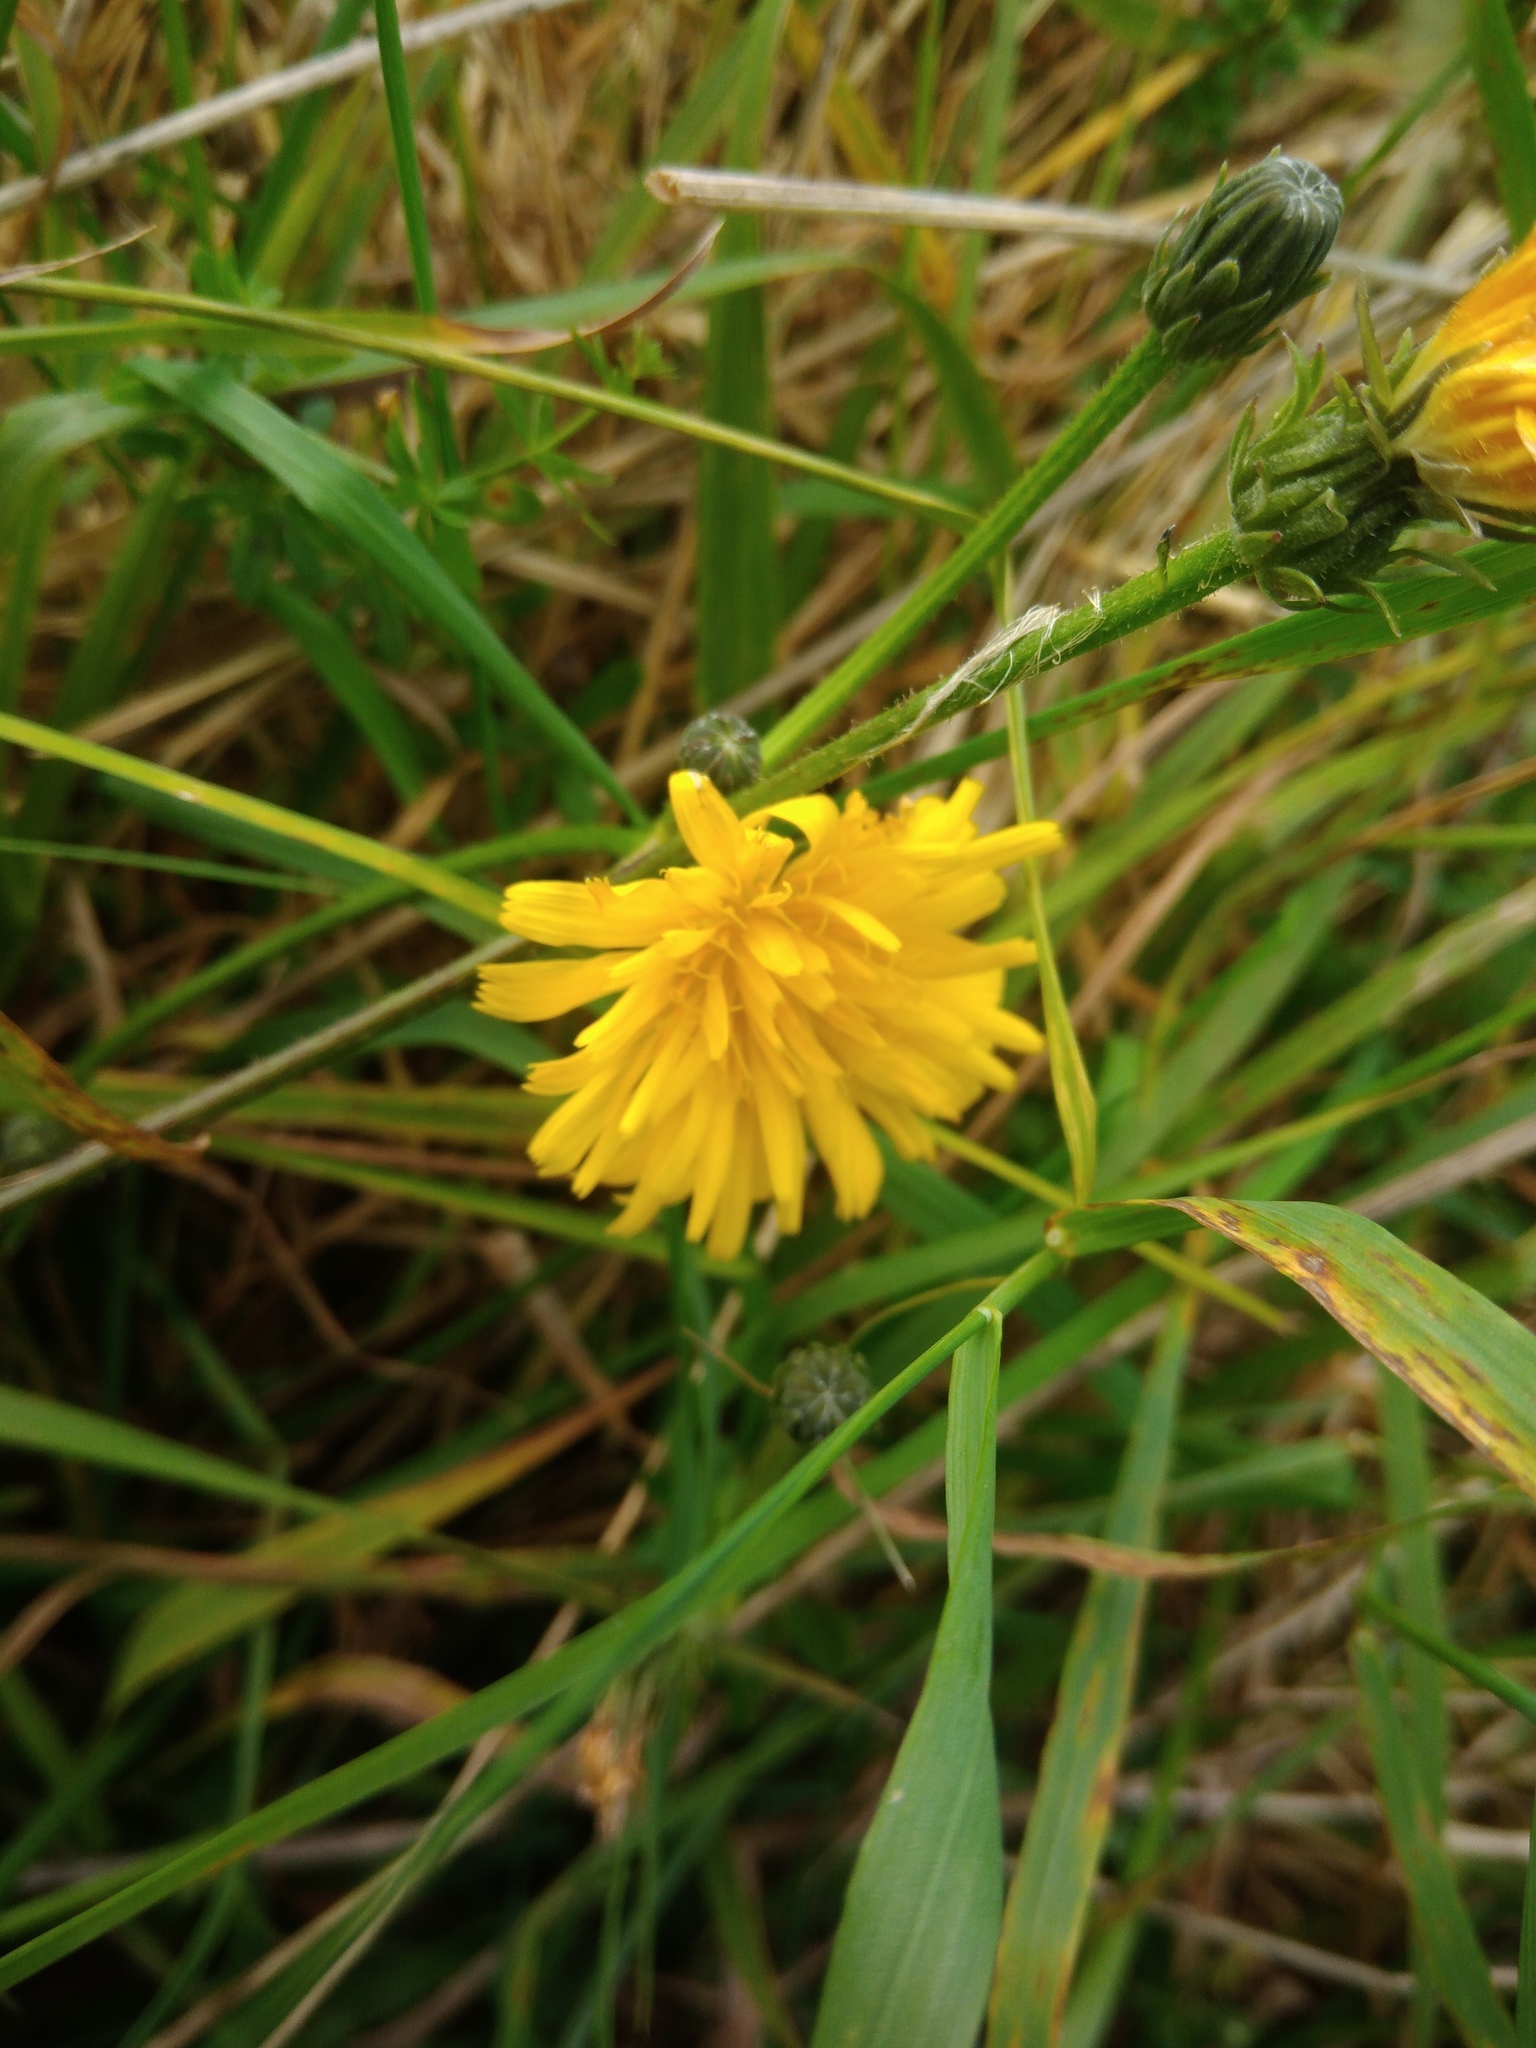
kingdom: Plantae
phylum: Tracheophyta
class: Magnoliopsida
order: Asterales
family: Asteraceae
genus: Picris
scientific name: Picris hieracioides
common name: Hawkweed oxtongue
